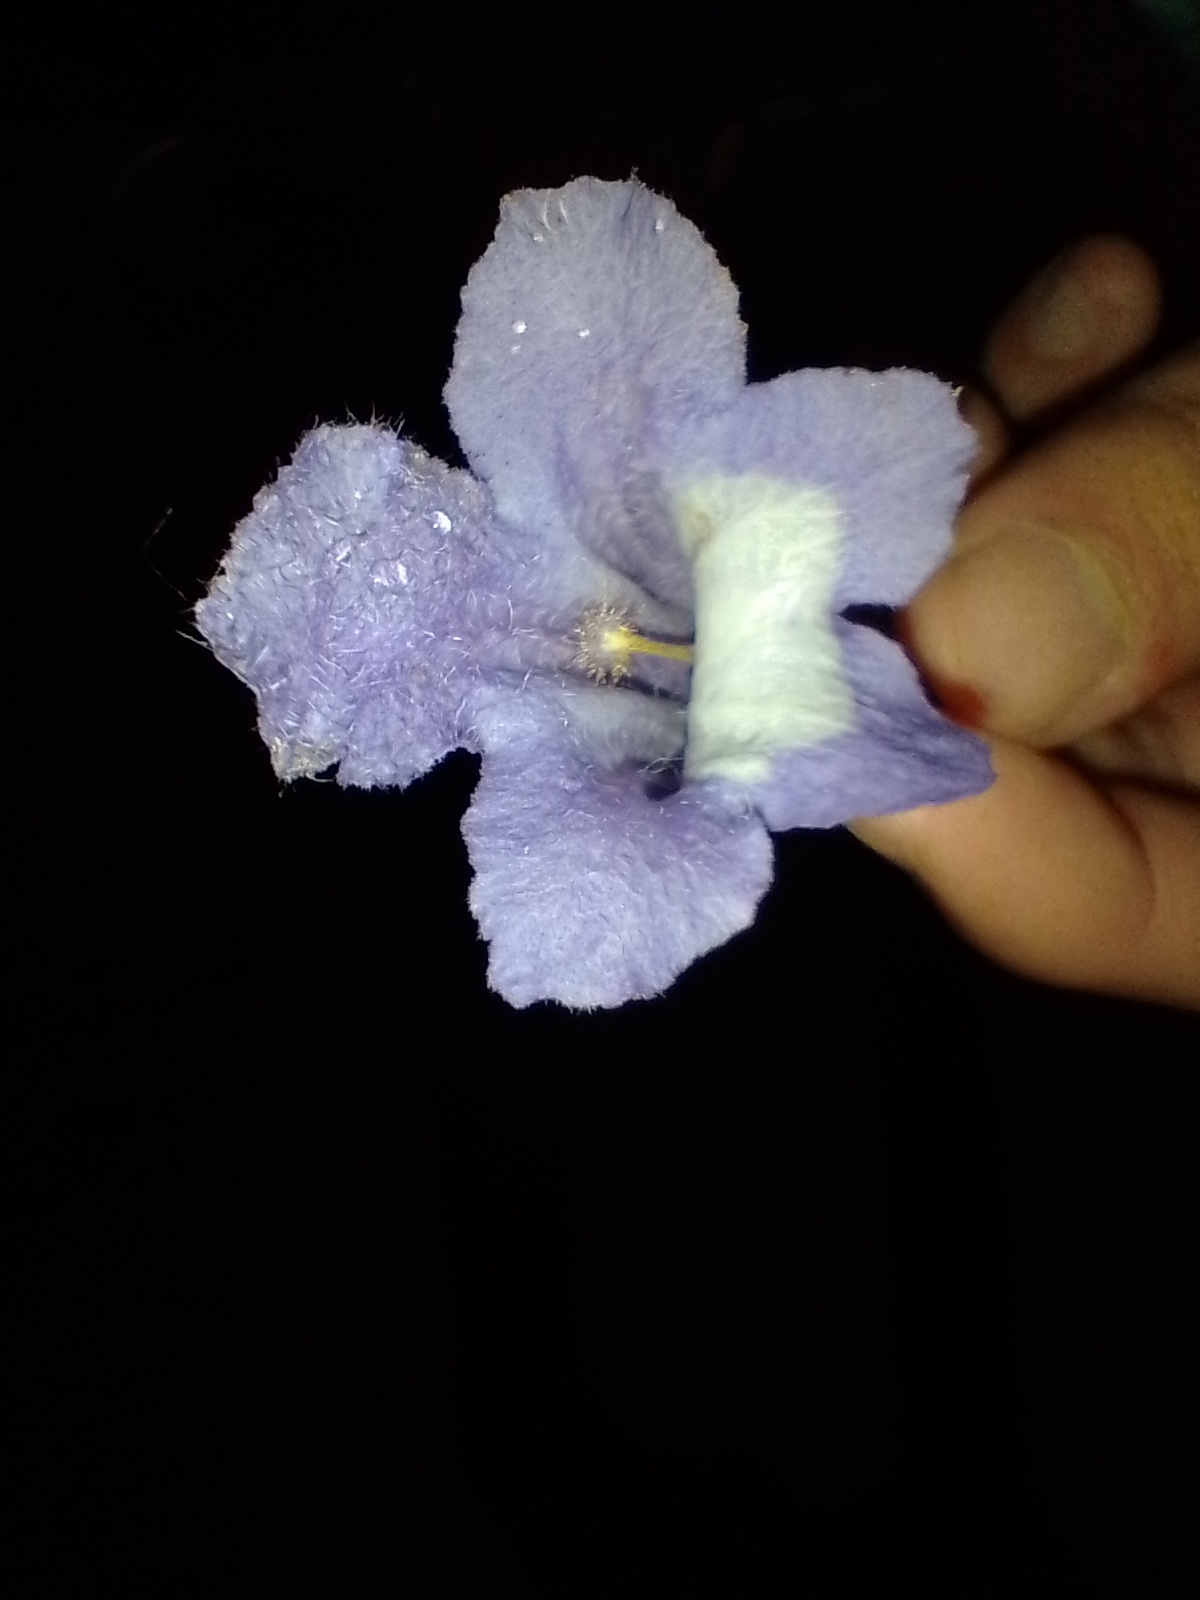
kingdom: Plantae
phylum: Tracheophyta
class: Magnoliopsida
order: Lamiales
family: Bignoniaceae
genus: Jacaranda
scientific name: Jacaranda mimosifolia
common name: Black poui
